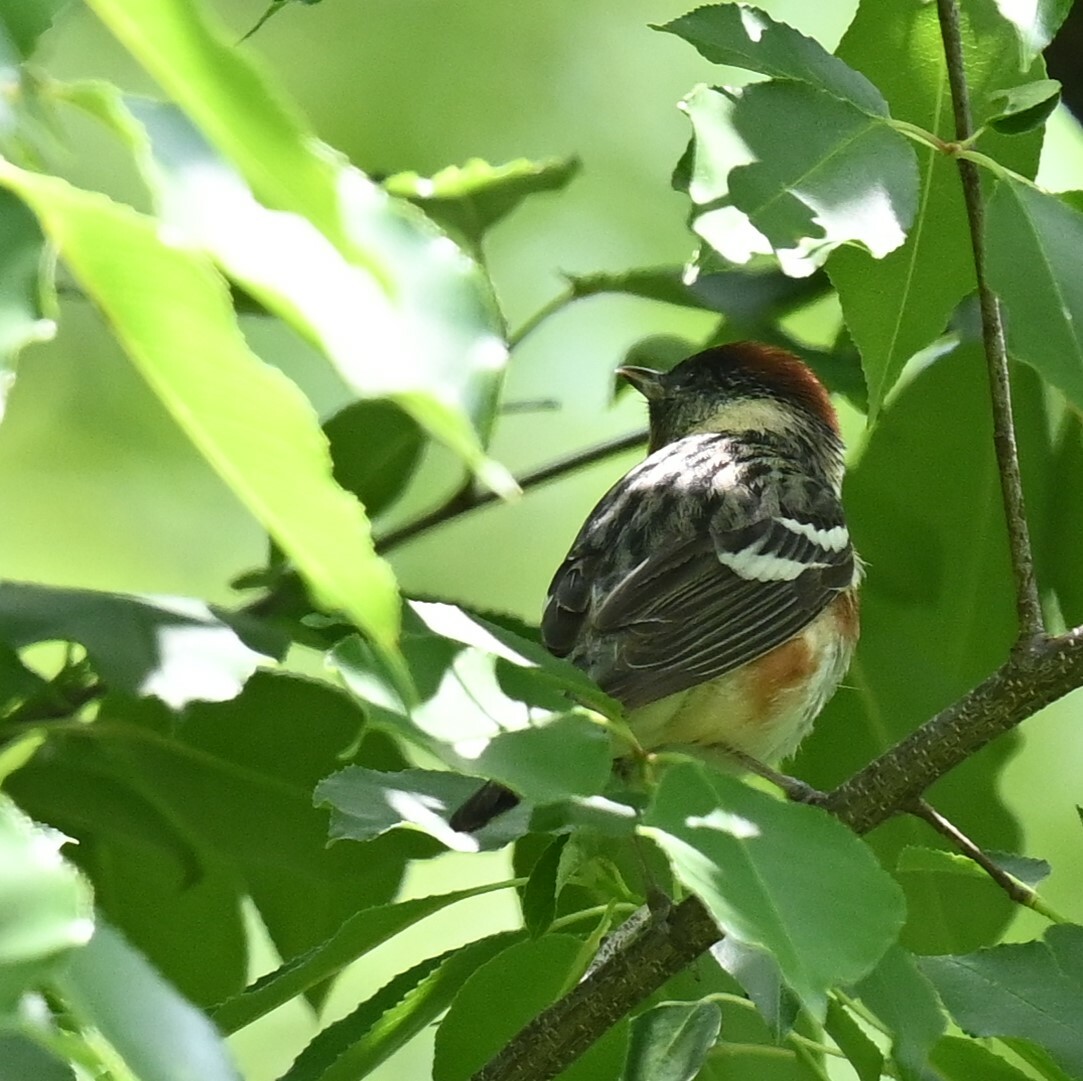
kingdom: Animalia
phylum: Chordata
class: Aves
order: Passeriformes
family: Parulidae
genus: Setophaga
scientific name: Setophaga castanea
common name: Bay-breasted warbler
